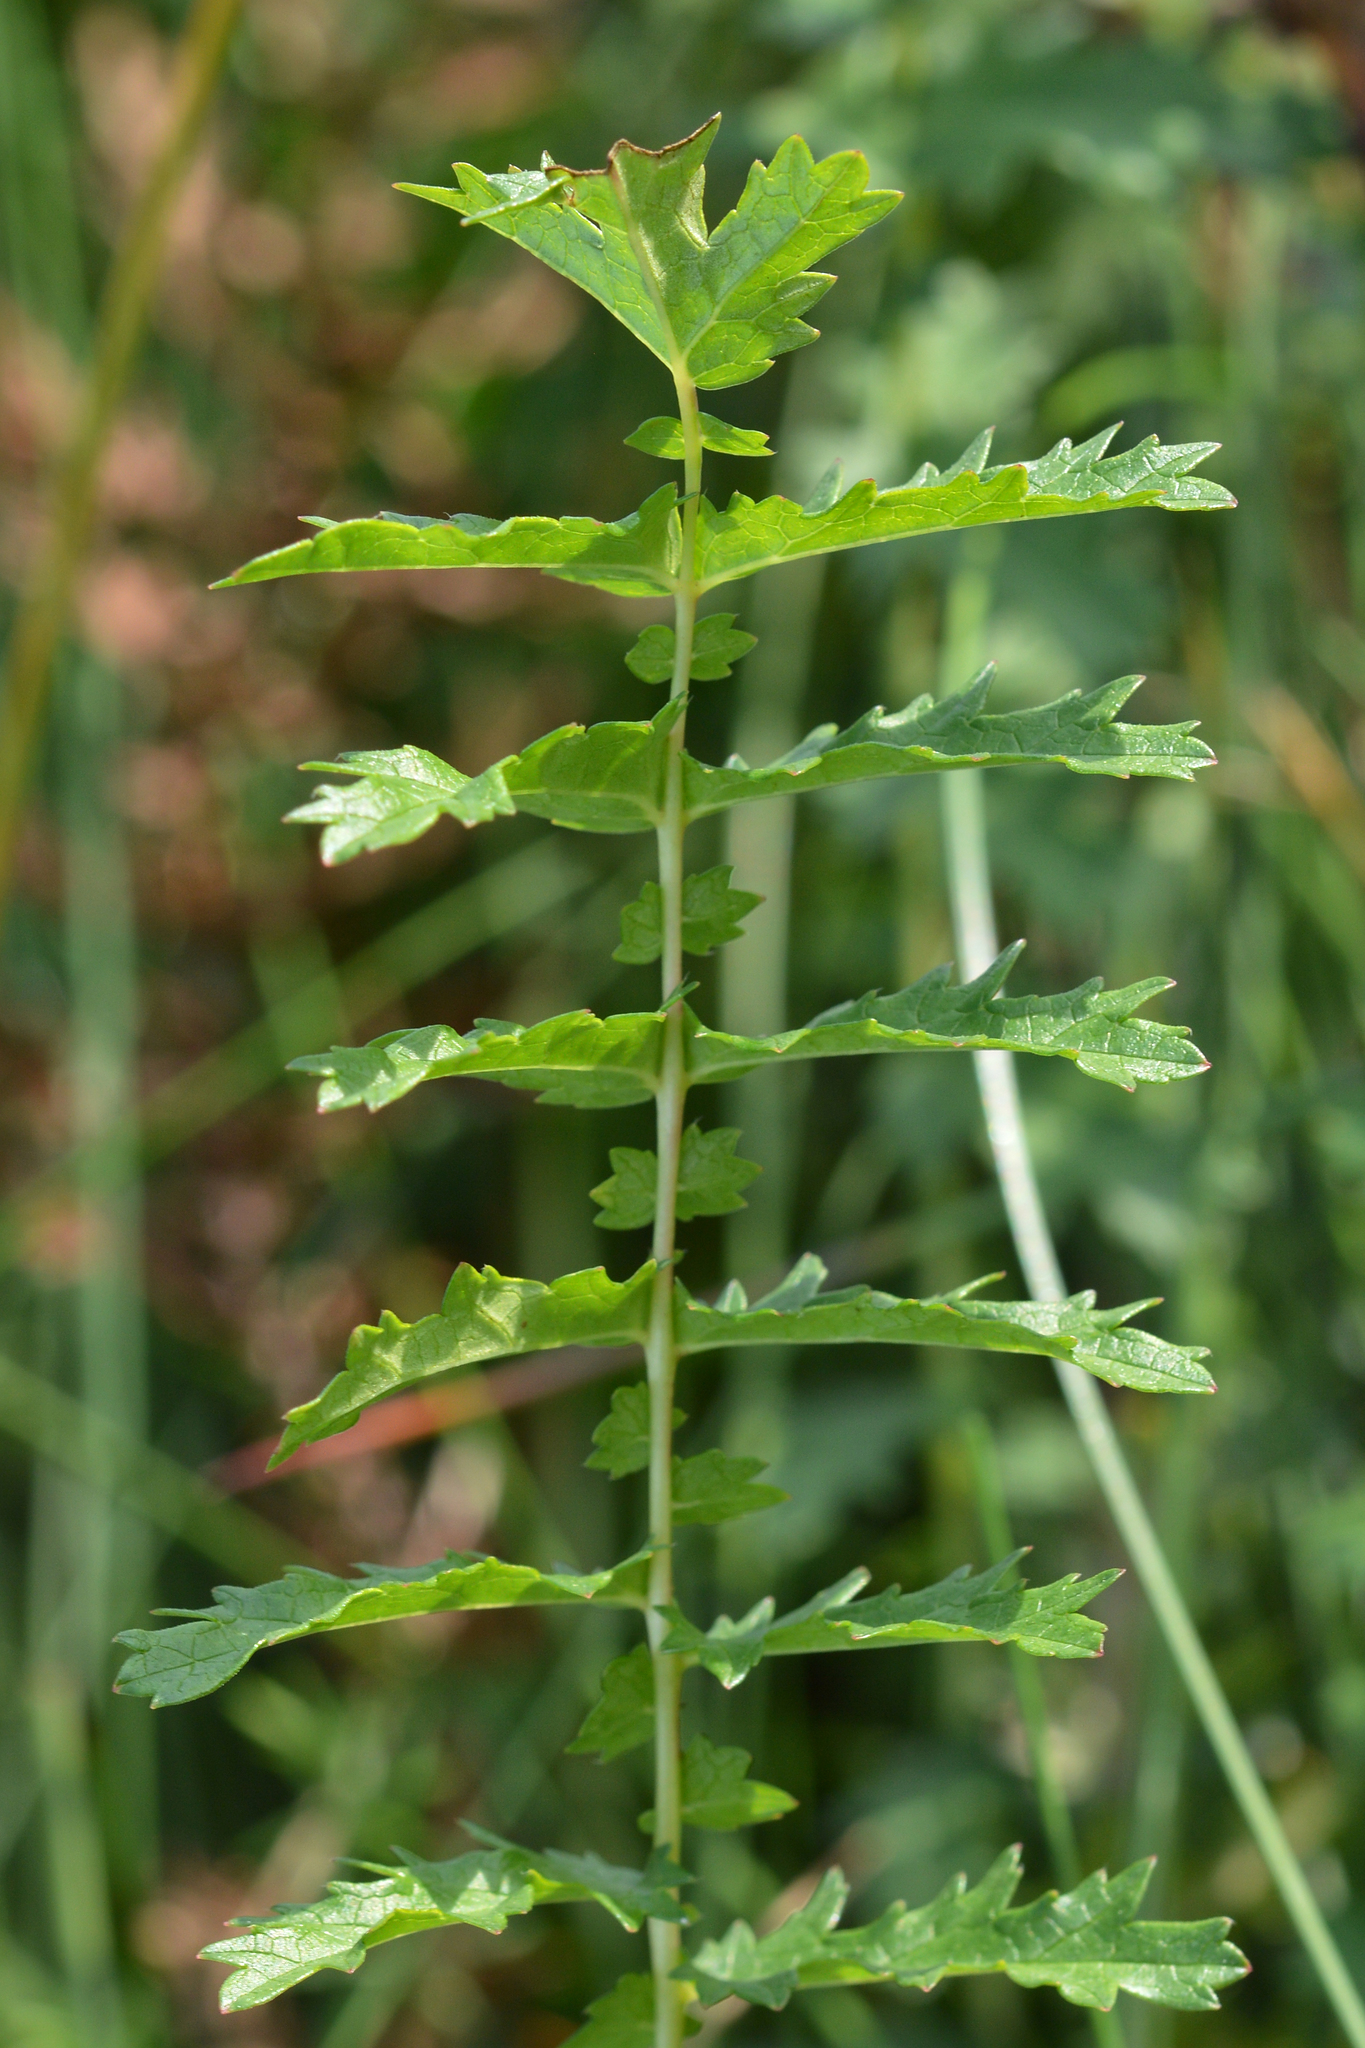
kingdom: Plantae
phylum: Tracheophyta
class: Magnoliopsida
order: Rosales
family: Rosaceae
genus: Filipendula
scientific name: Filipendula vulgaris
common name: Dropwort
